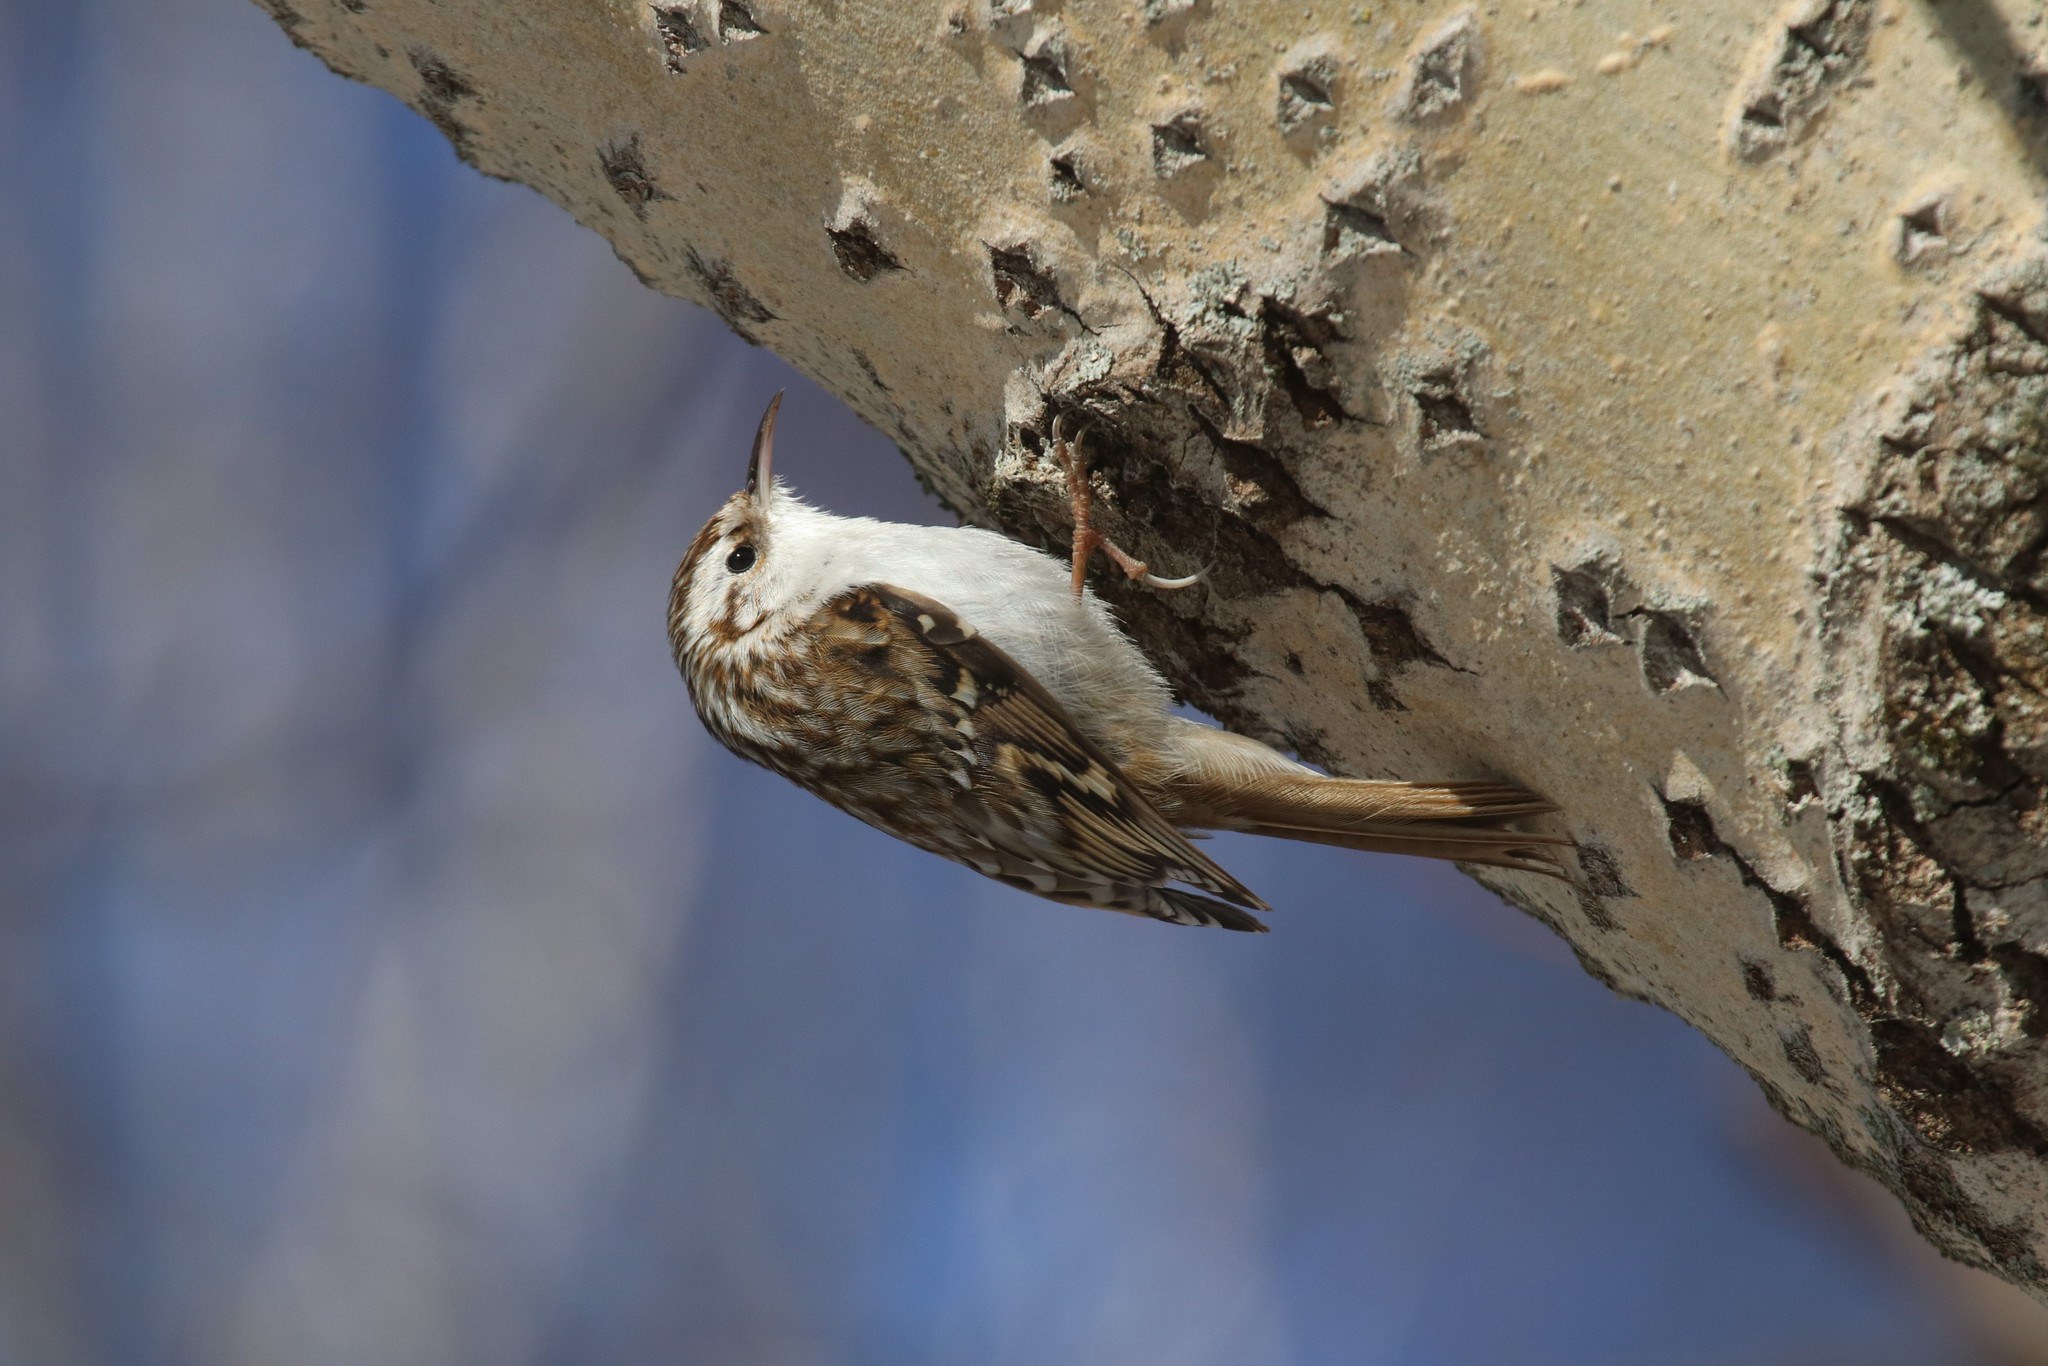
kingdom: Animalia
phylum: Chordata
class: Aves
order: Passeriformes
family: Certhiidae
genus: Certhia
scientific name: Certhia familiaris
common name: Eurasian treecreeper
